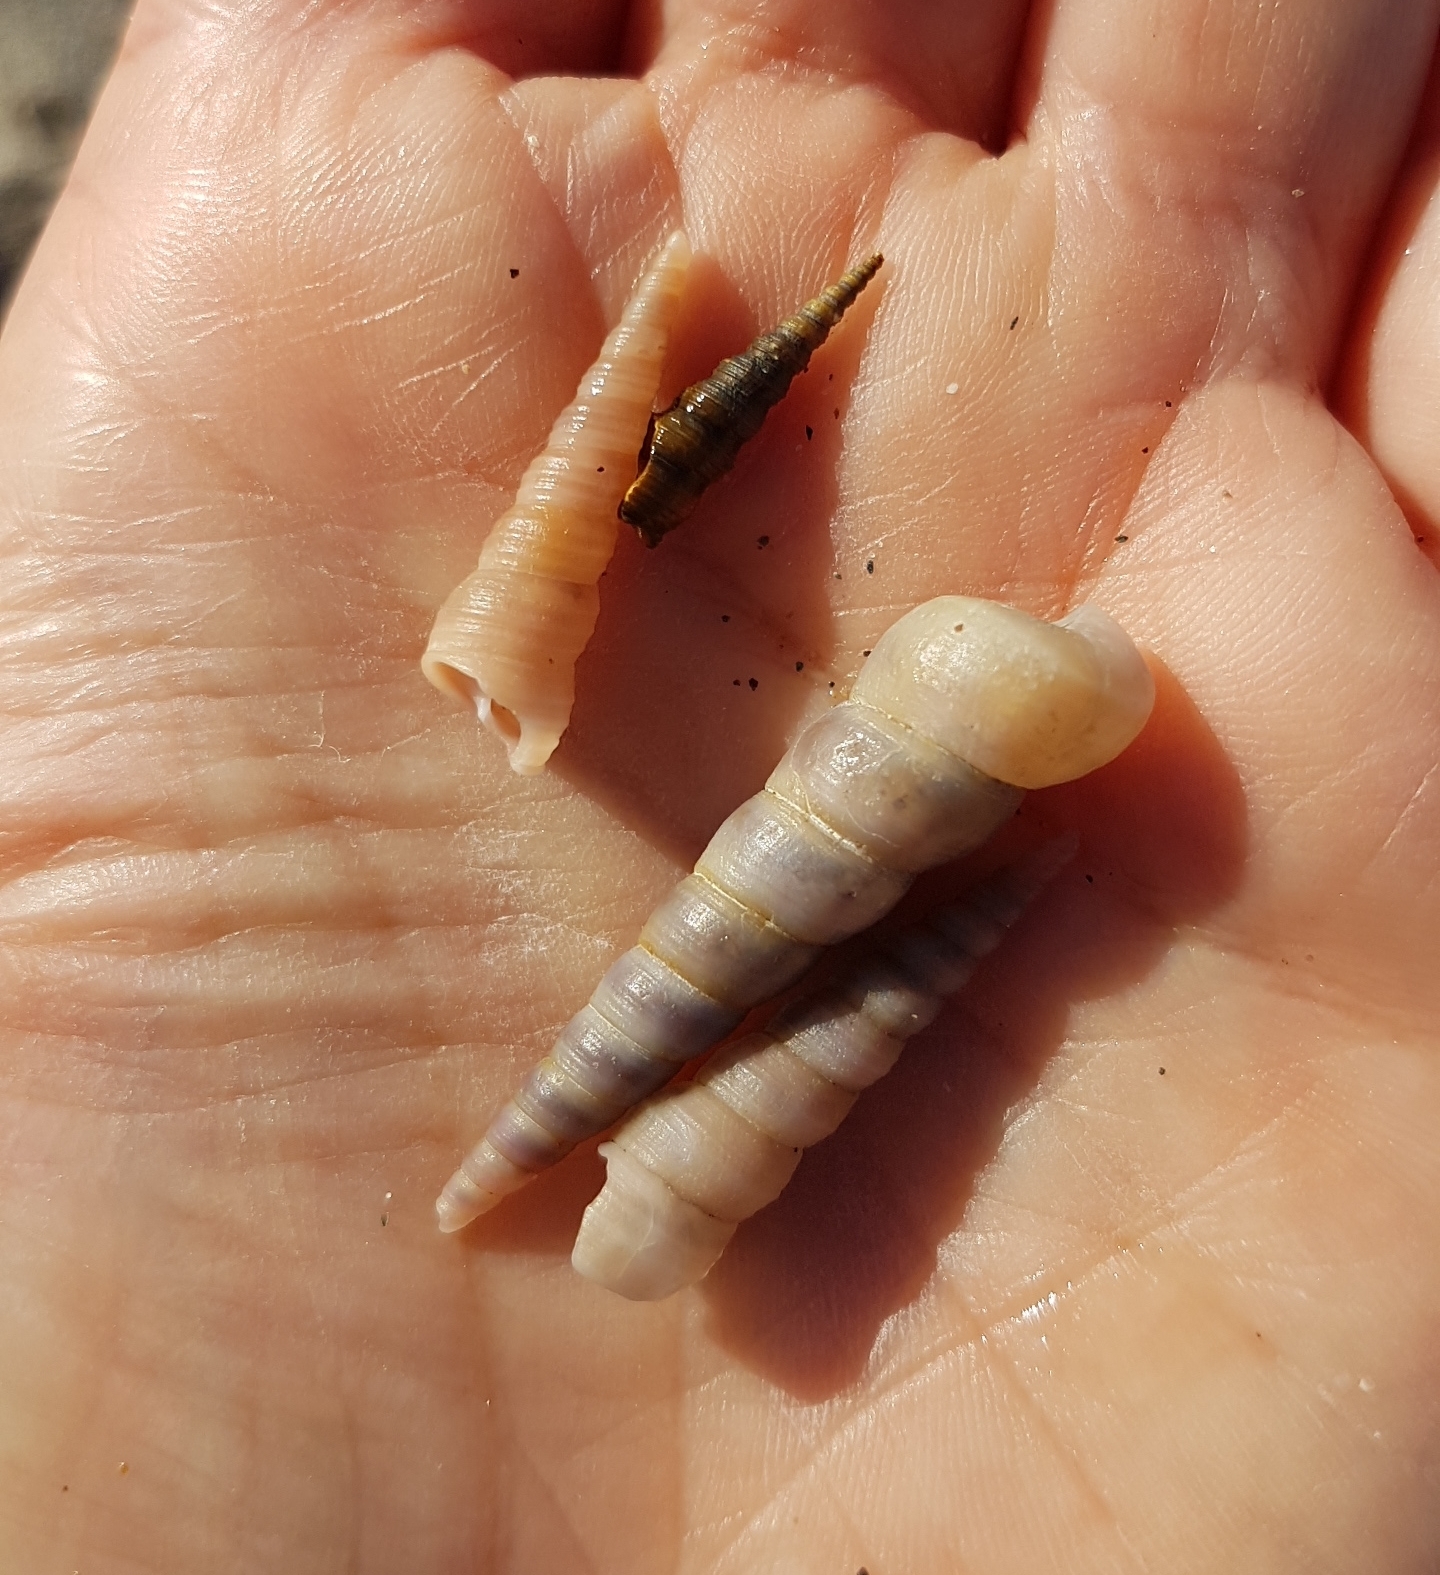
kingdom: Animalia
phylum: Mollusca
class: Gastropoda
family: Turritellidae
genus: Turritellinella
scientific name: Turritellinella tricarinata
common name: Auger shell
